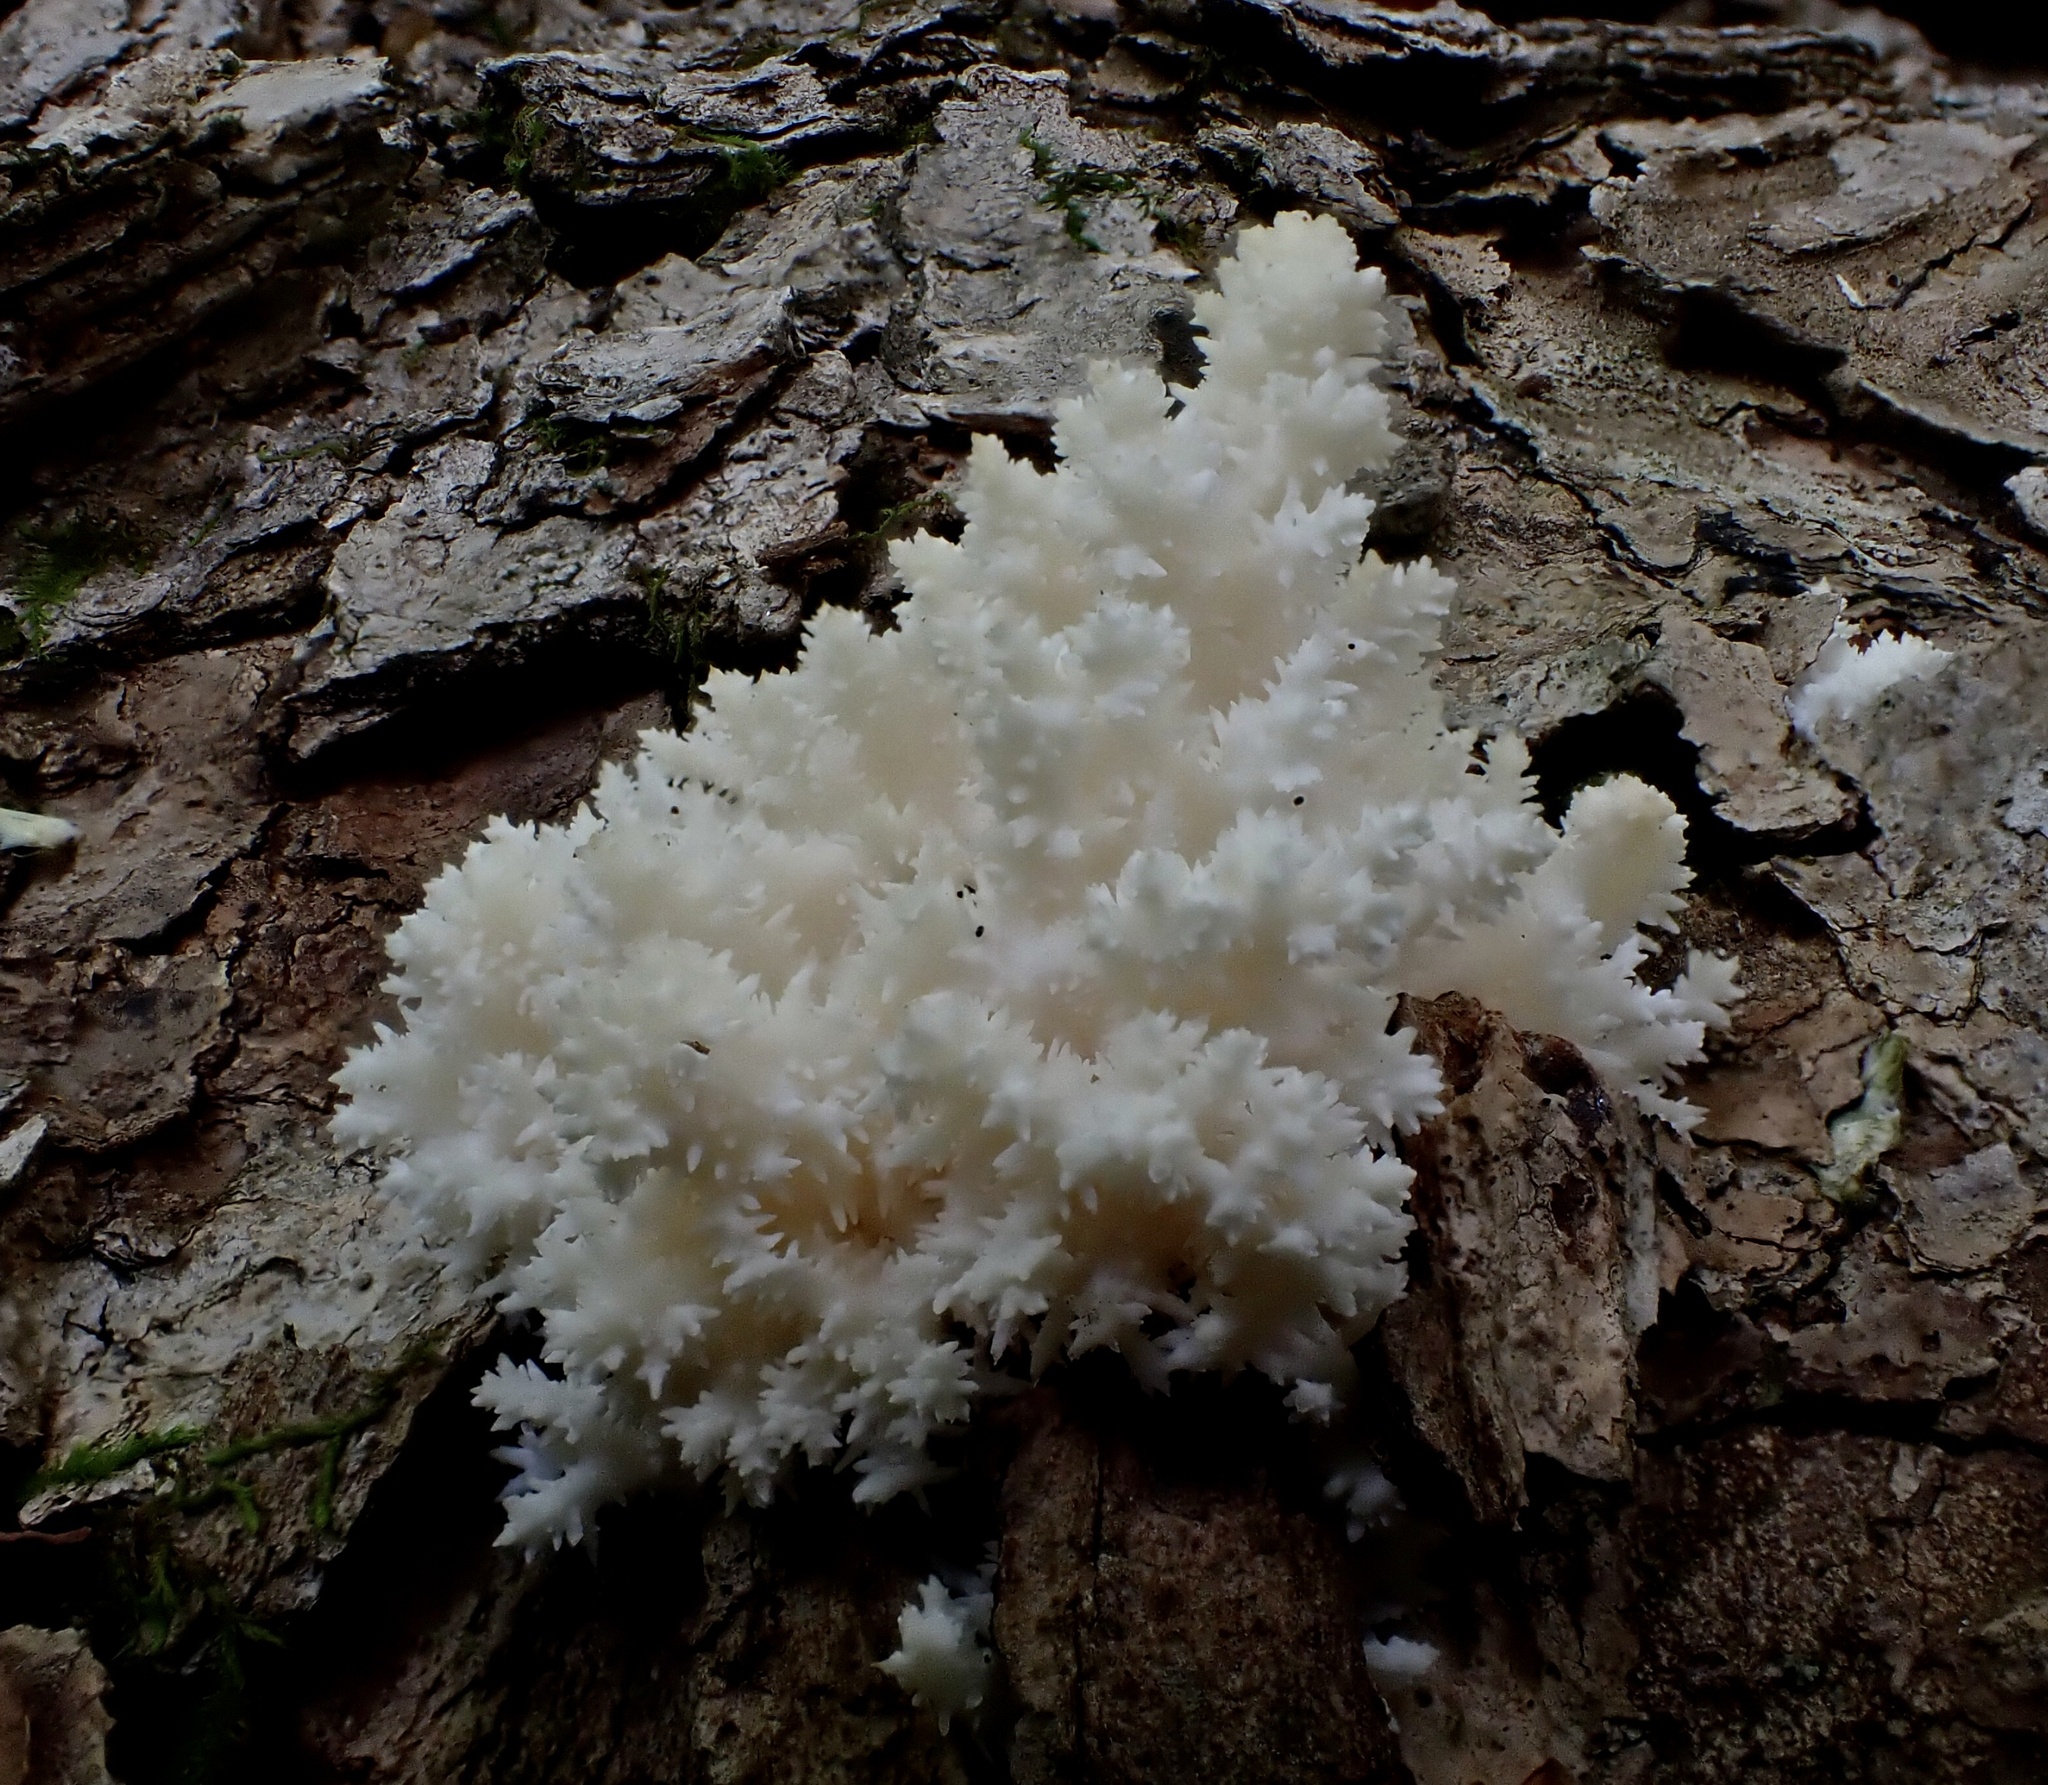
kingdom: Fungi
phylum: Basidiomycota
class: Agaricomycetes
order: Russulales
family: Hericiaceae
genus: Hericium
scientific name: Hericium coralloides
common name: Coral tooth
